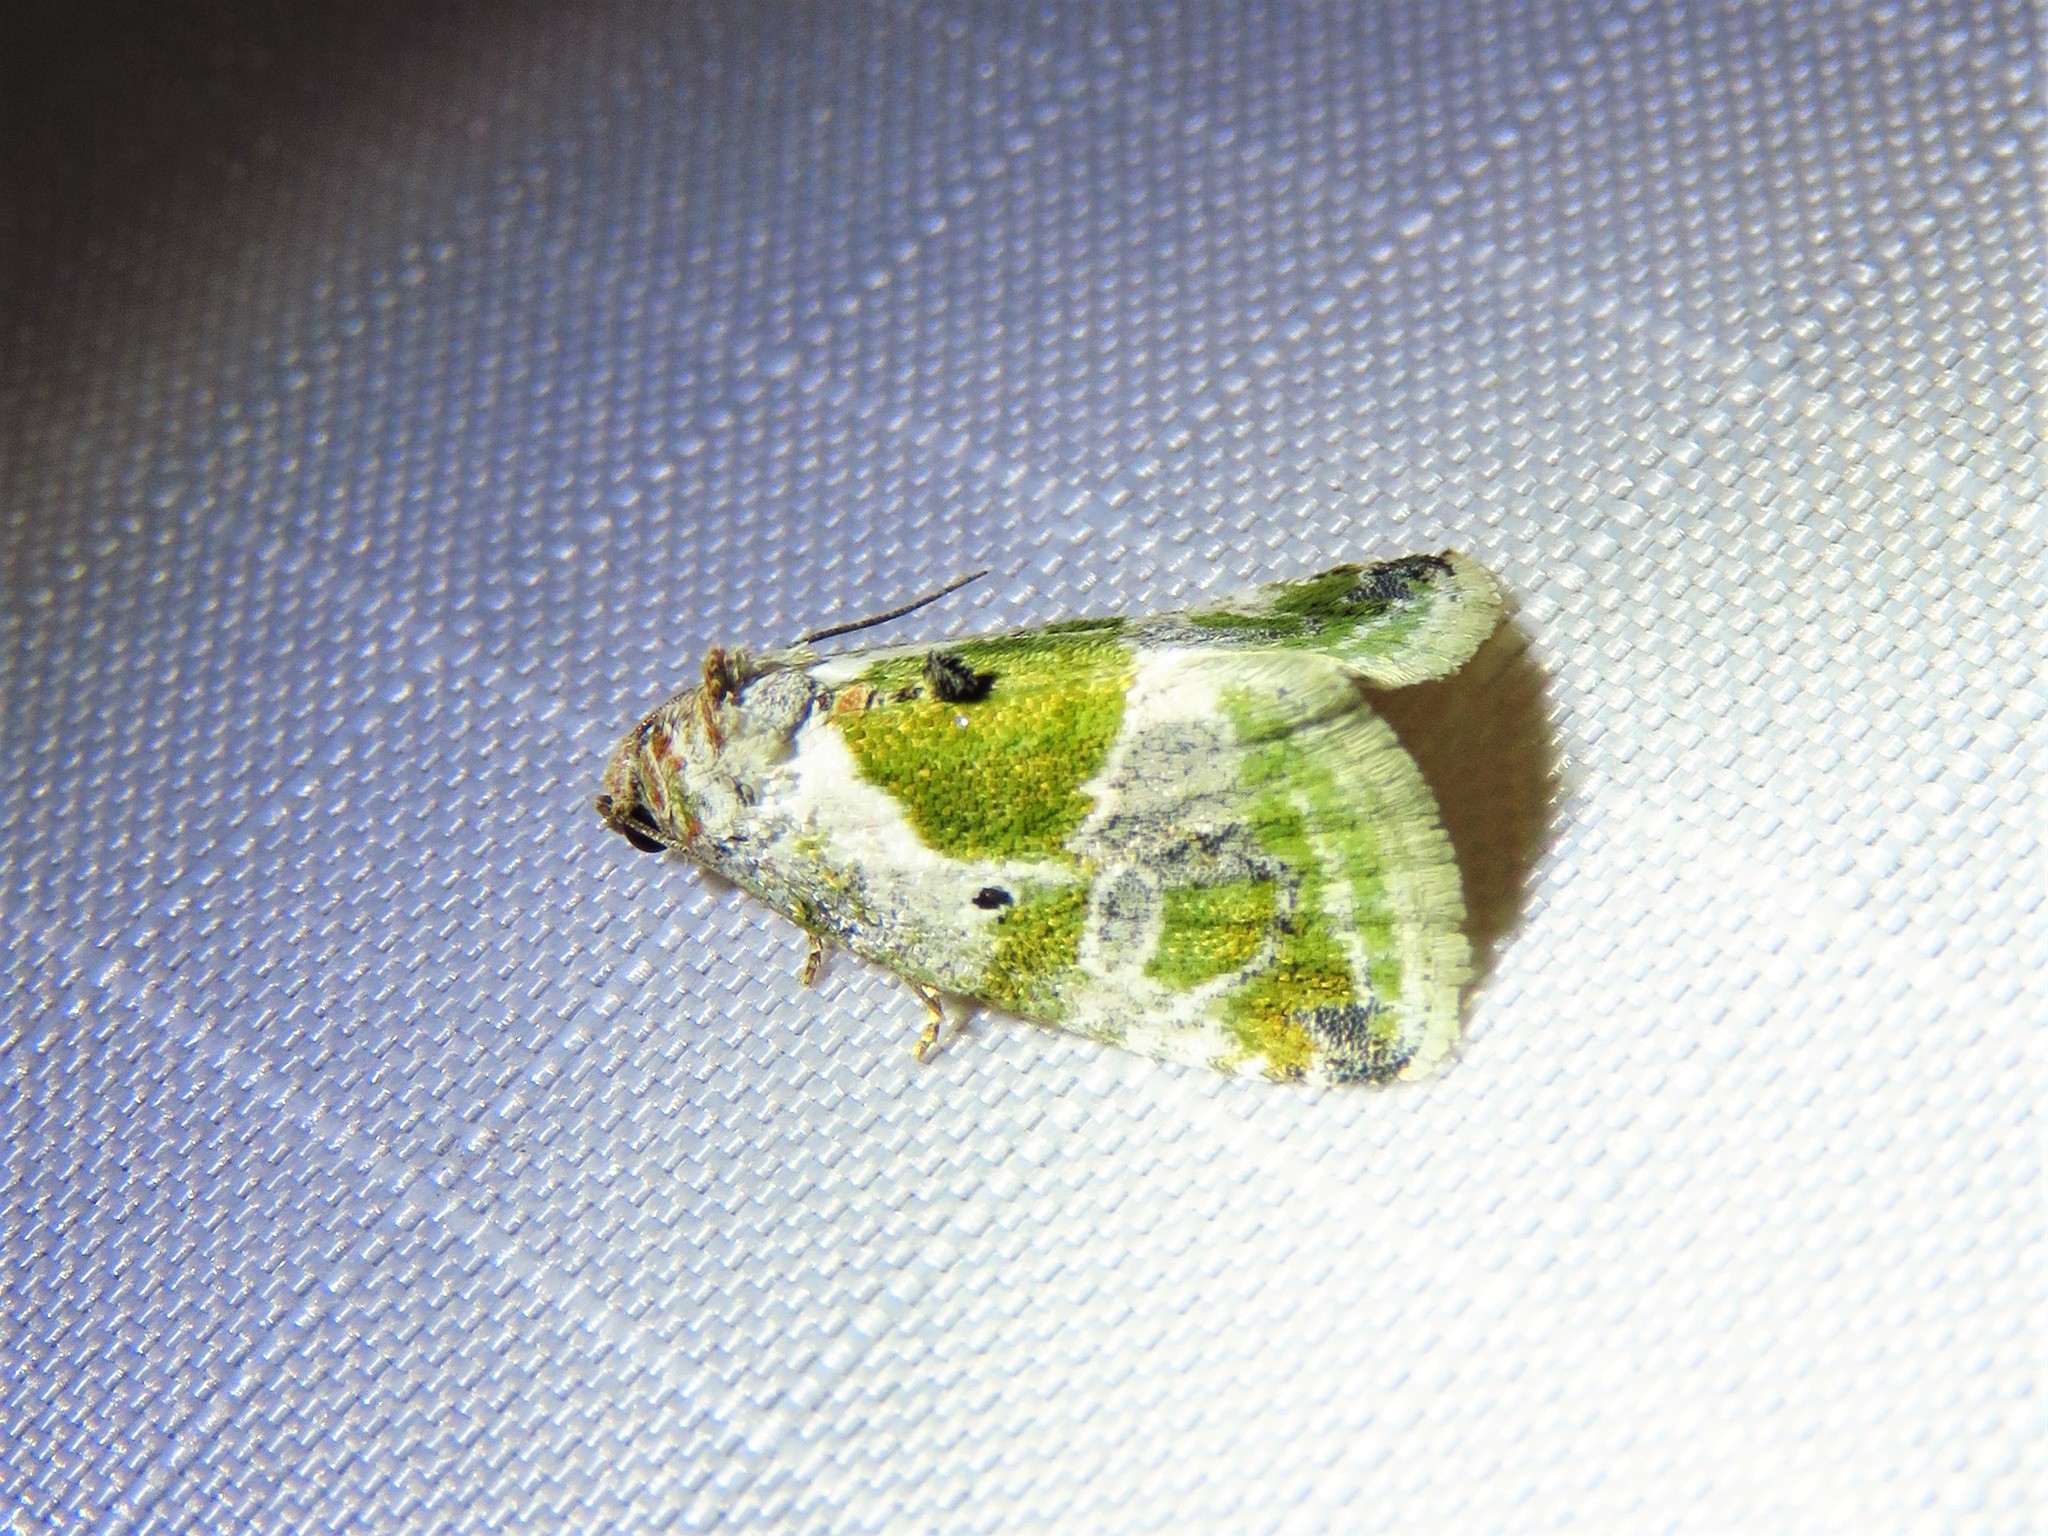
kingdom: Animalia
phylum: Arthropoda
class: Insecta
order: Lepidoptera
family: Noctuidae
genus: Maliattha
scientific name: Maliattha synochitis
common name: Black-dotted glyph
